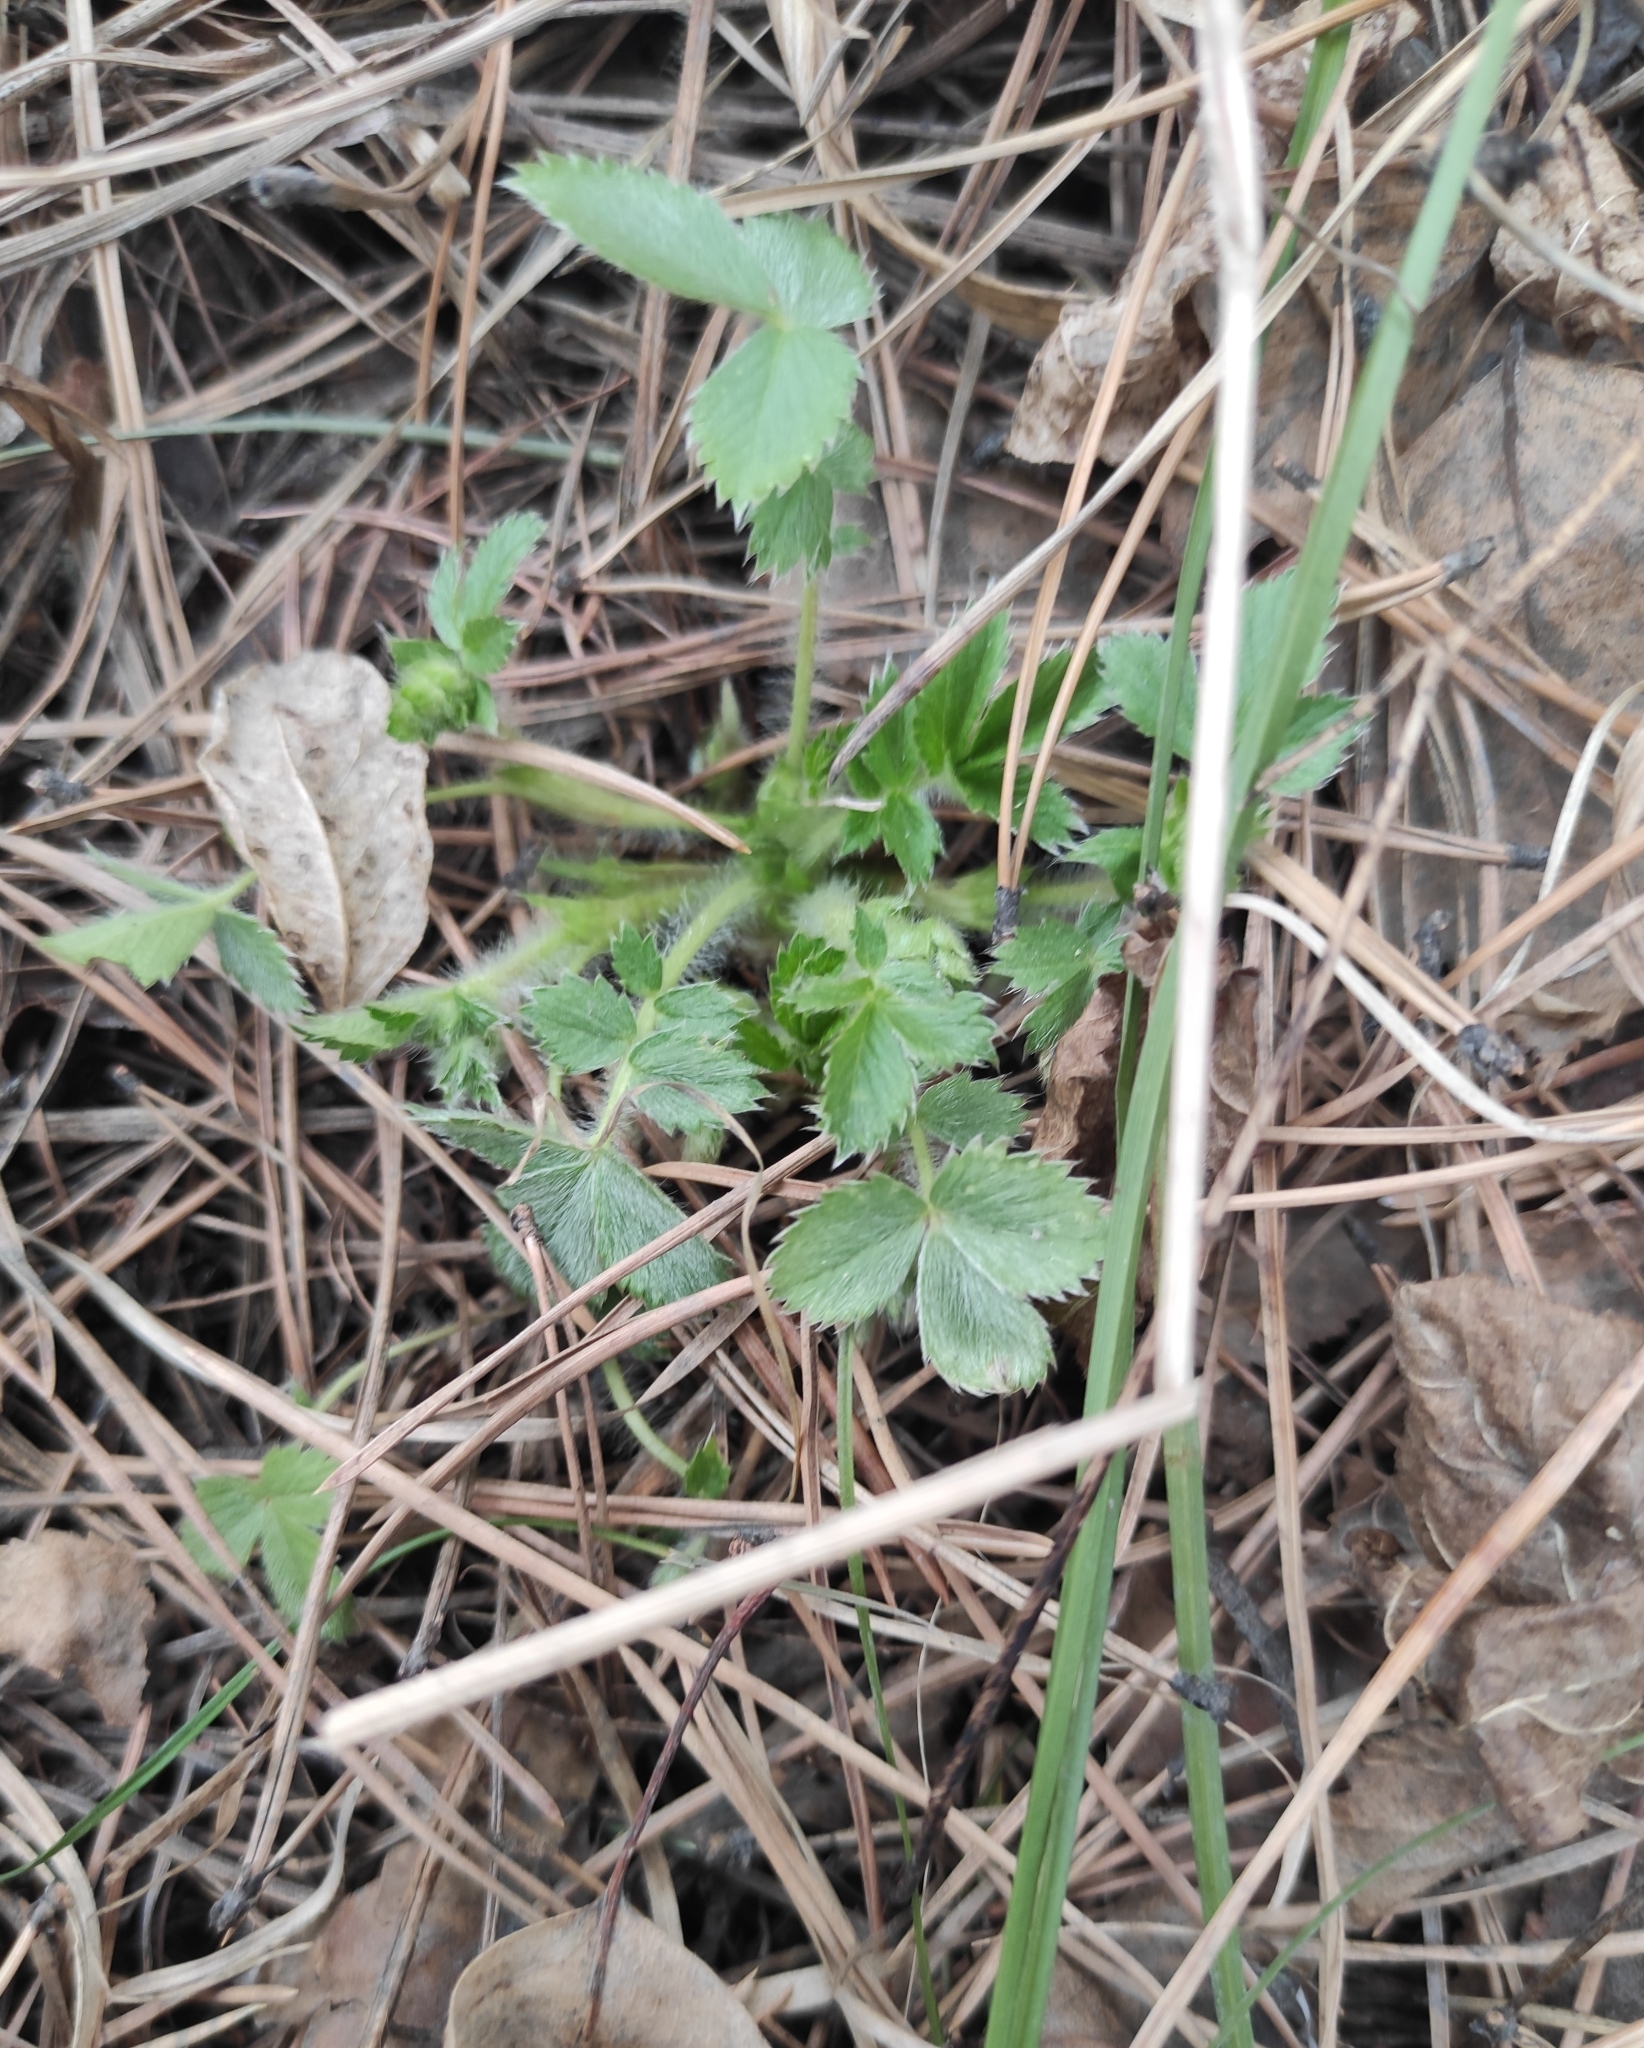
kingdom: Plantae
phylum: Tracheophyta
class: Magnoliopsida
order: Rosales
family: Rosaceae
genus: Potentilla
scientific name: Potentilla fragarioides
